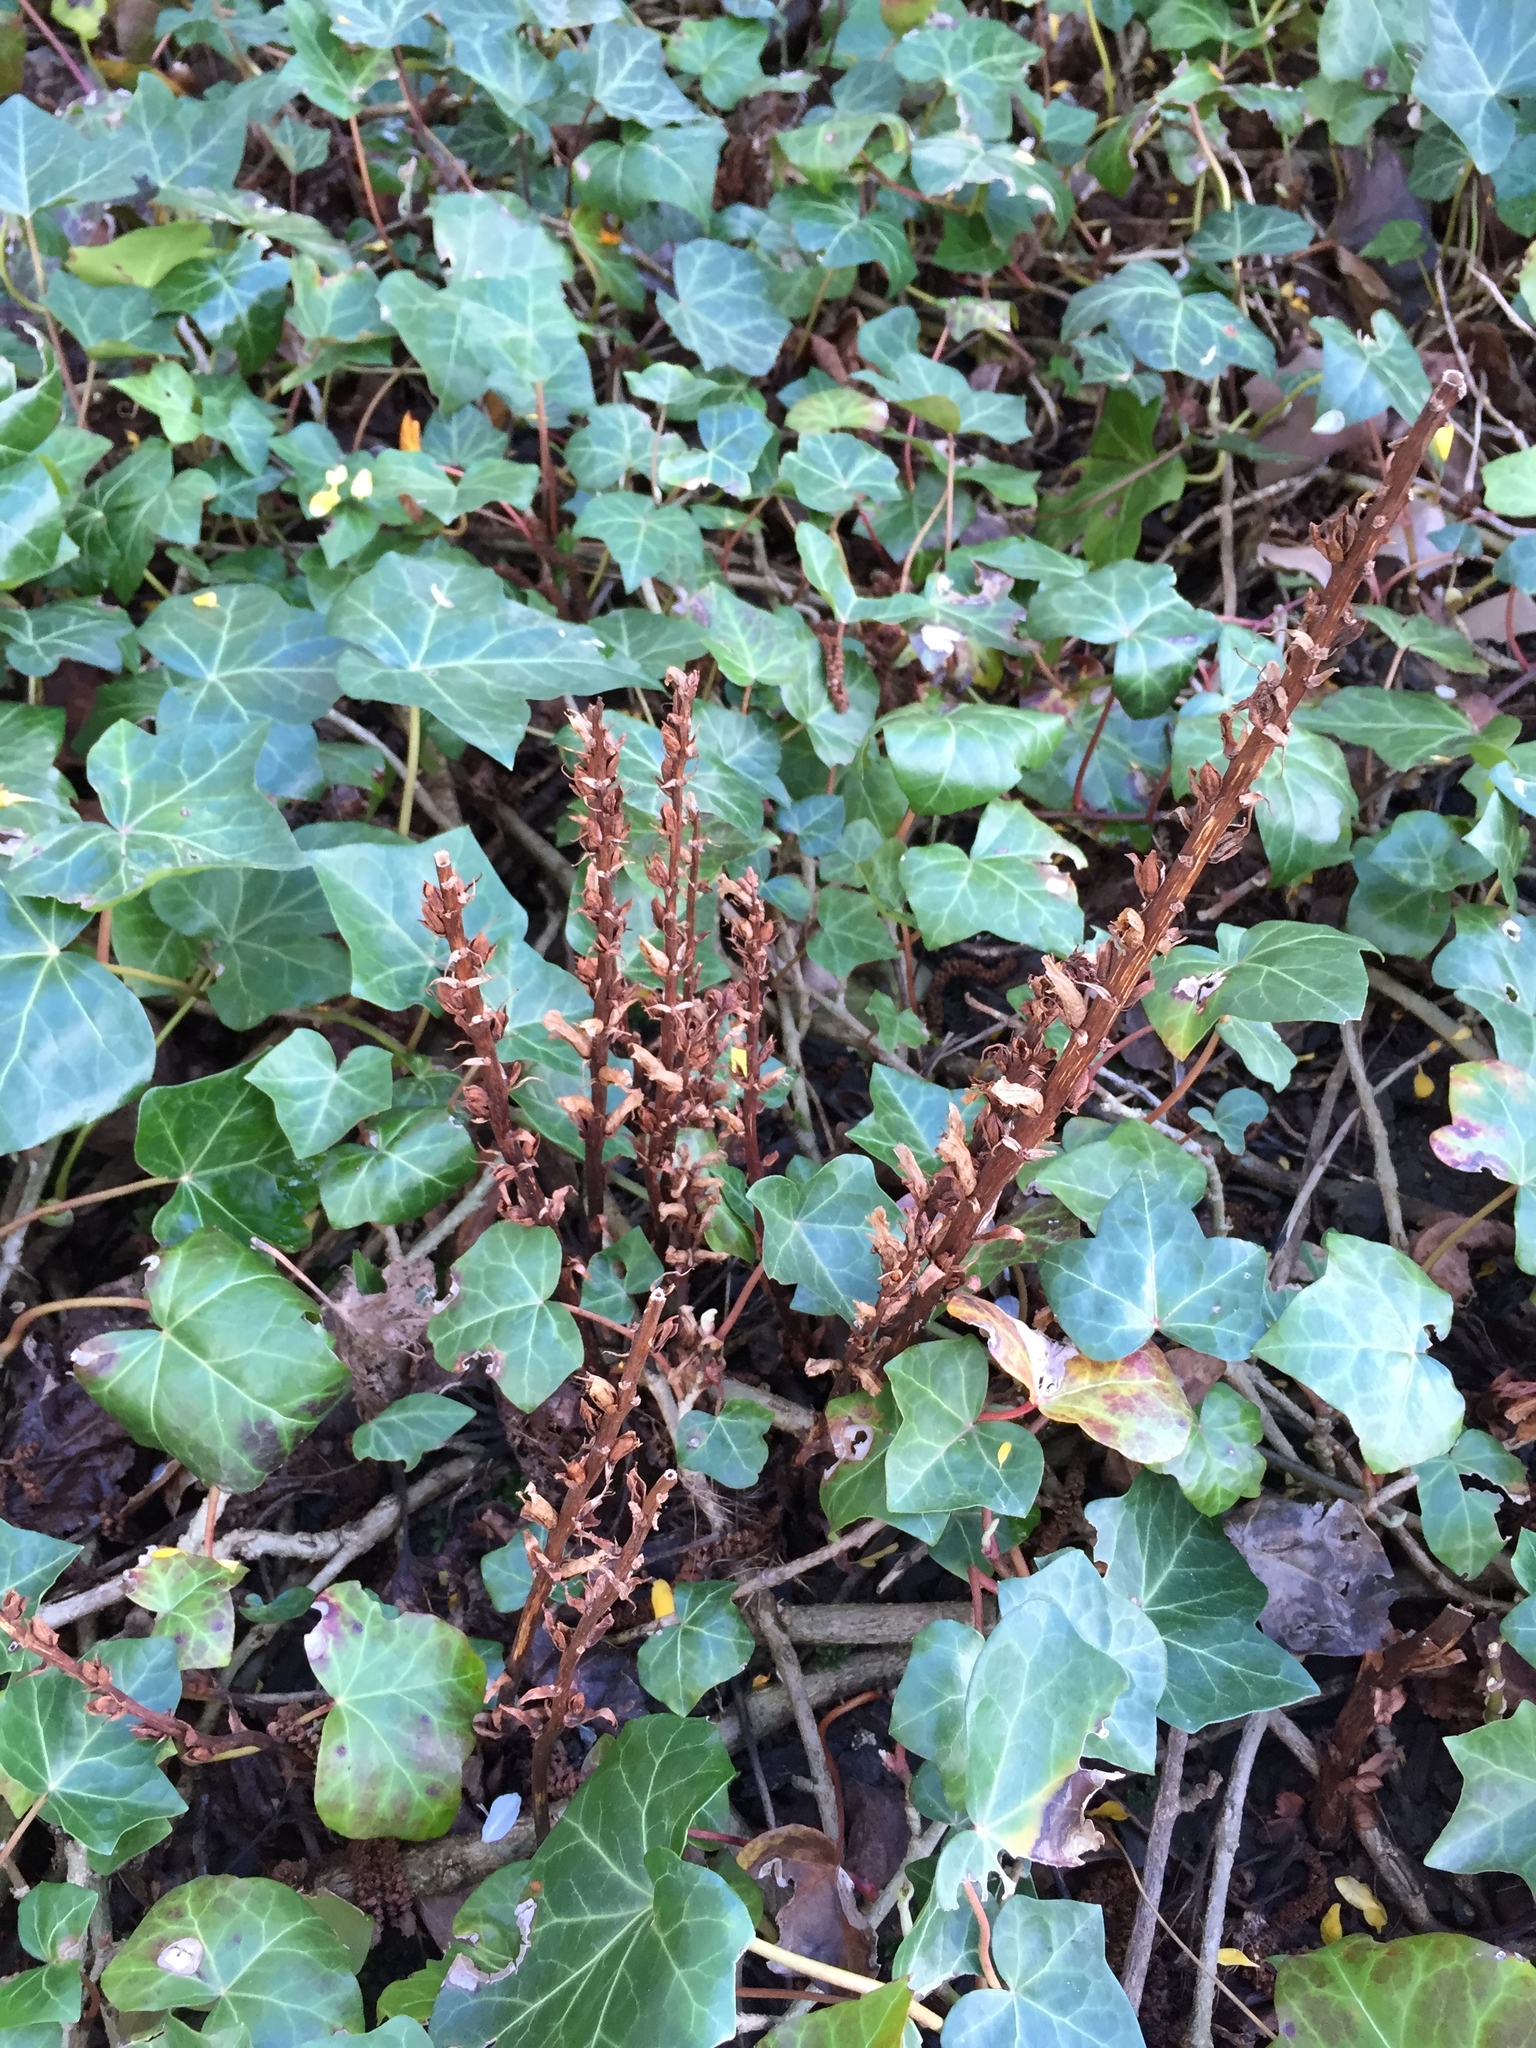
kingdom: Plantae
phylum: Tracheophyta
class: Magnoliopsida
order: Lamiales
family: Orobanchaceae
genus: Orobanche
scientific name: Orobanche hederae
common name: Ivy broomrape
